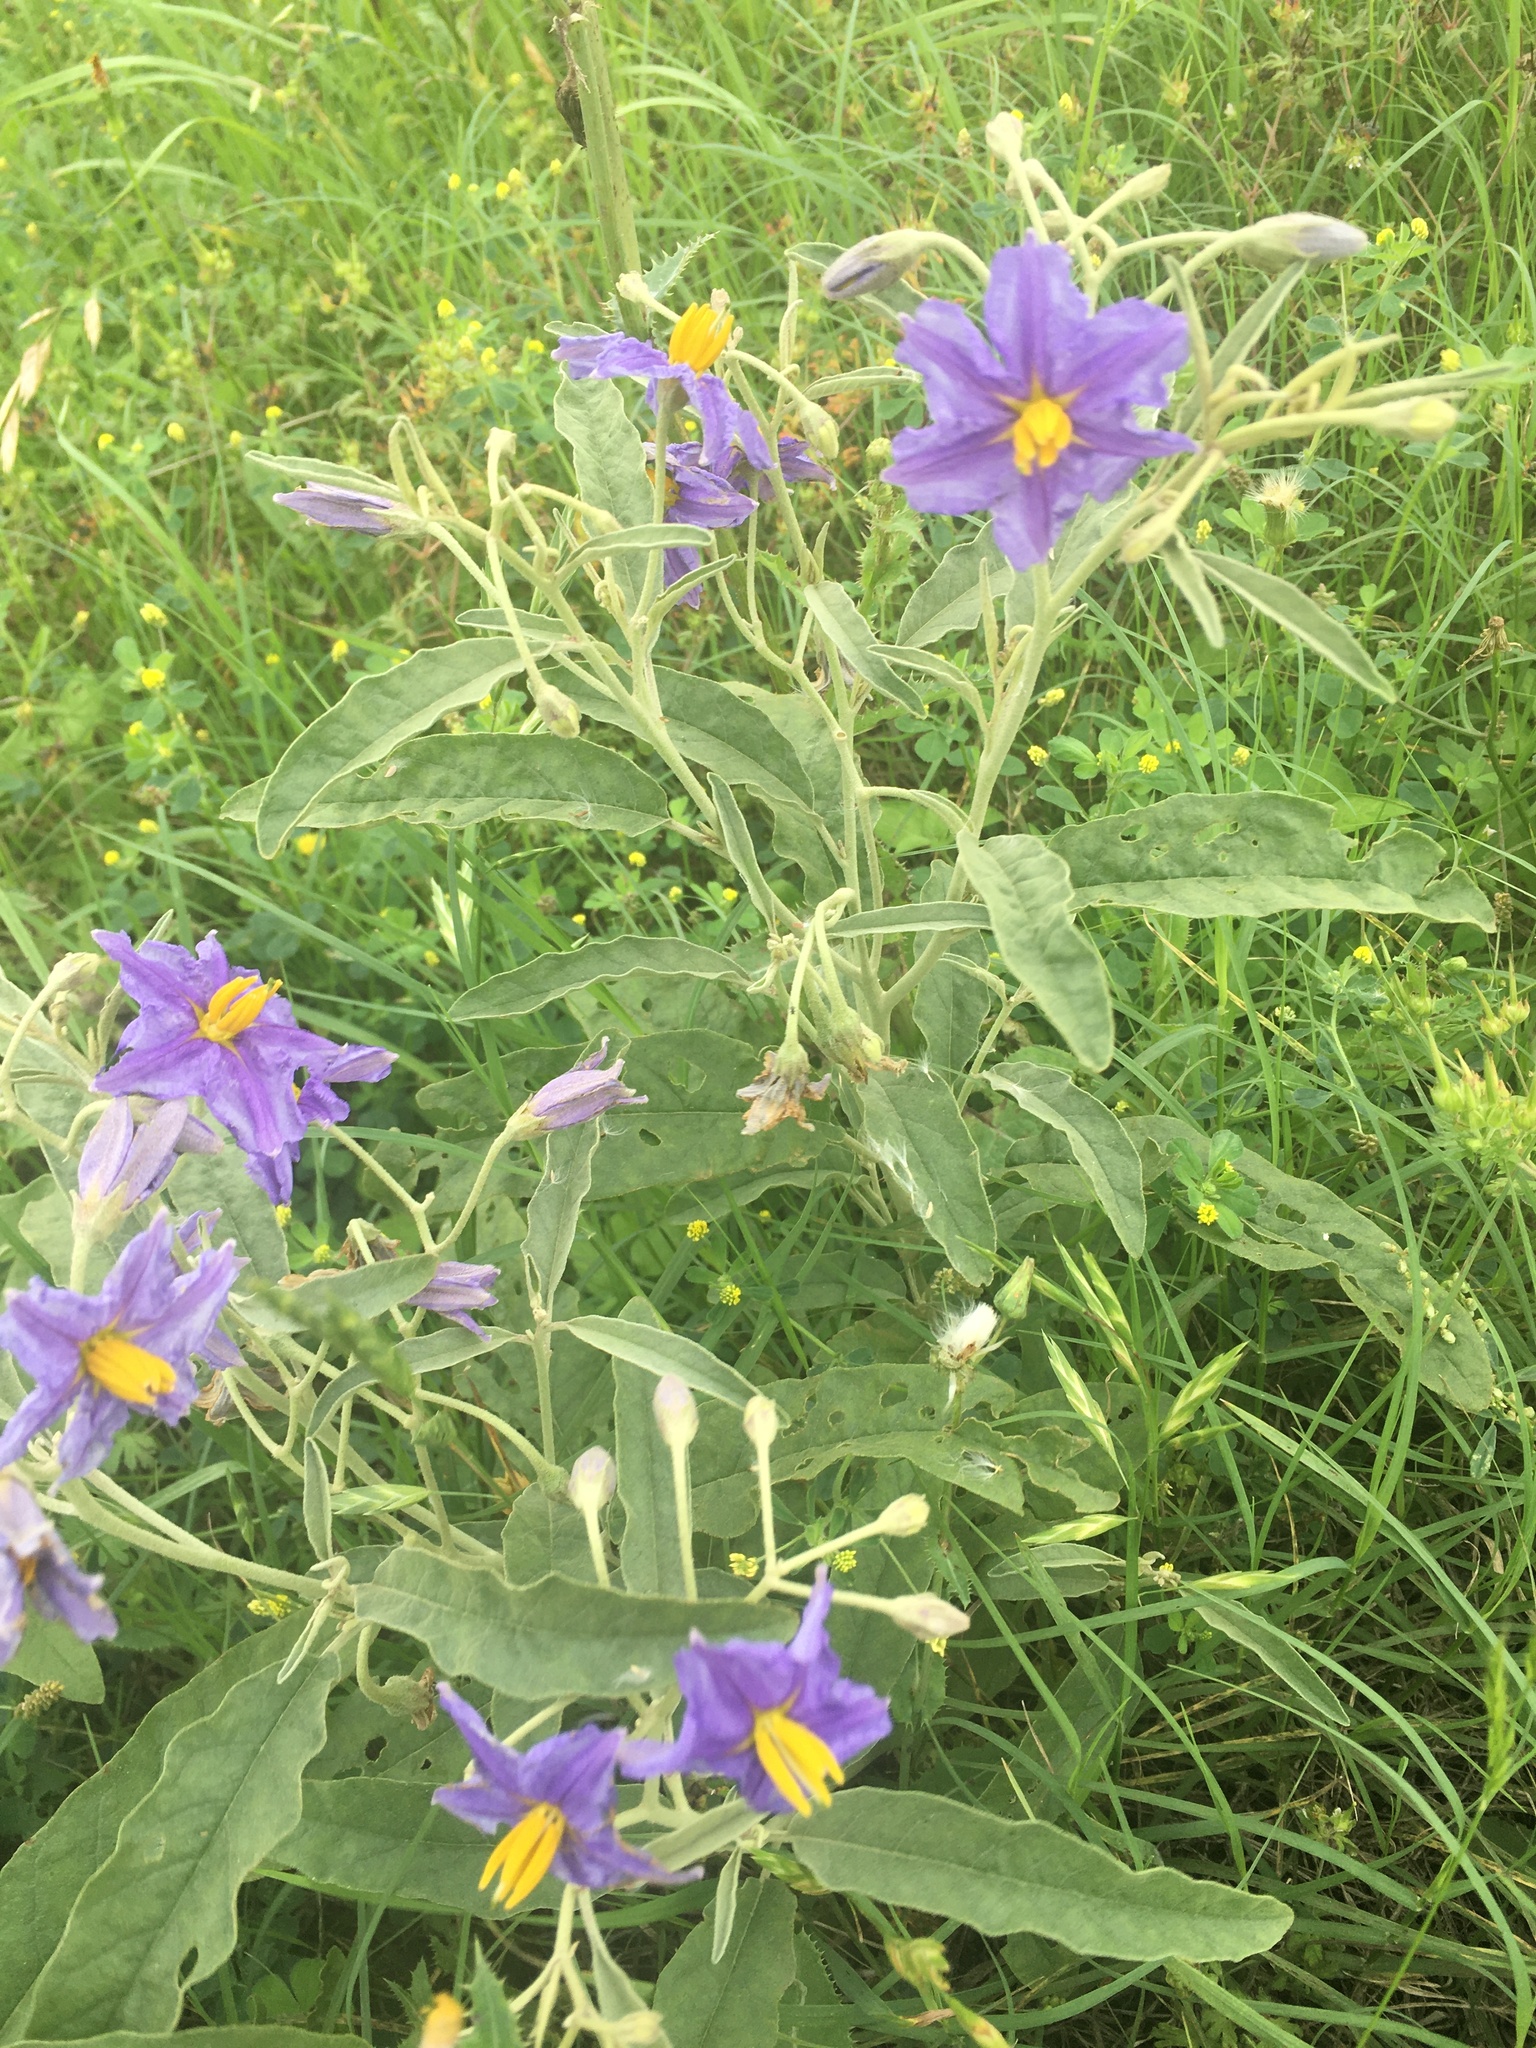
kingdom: Plantae
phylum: Tracheophyta
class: Magnoliopsida
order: Solanales
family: Solanaceae
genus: Solanum
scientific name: Solanum elaeagnifolium
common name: Silverleaf nightshade
